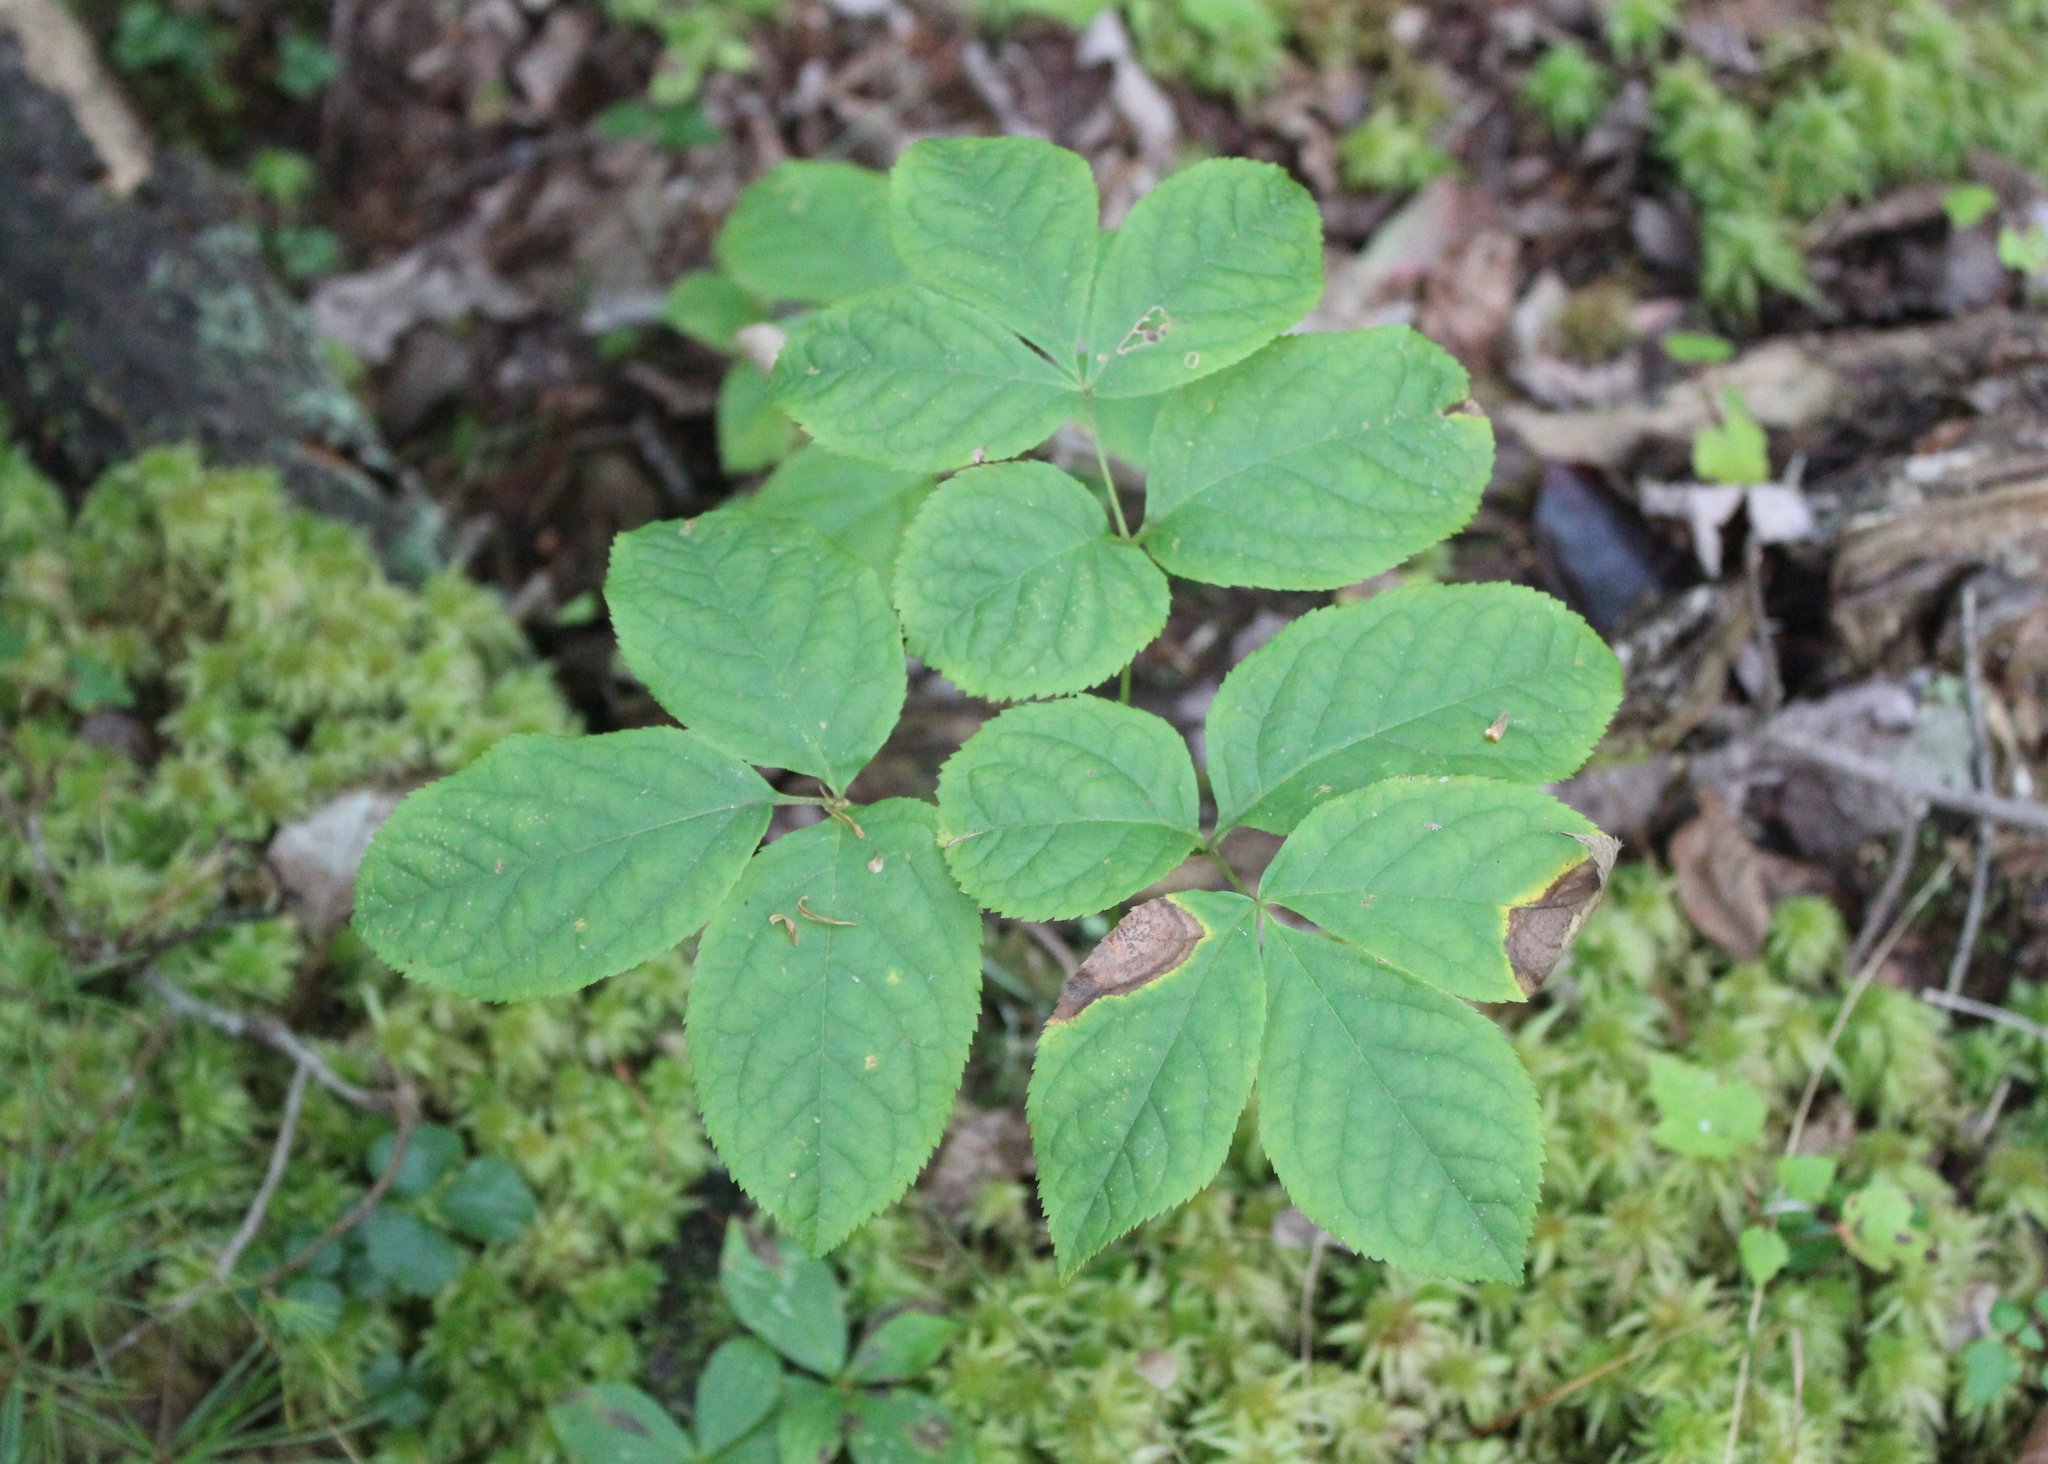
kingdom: Plantae
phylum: Tracheophyta
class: Magnoliopsida
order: Apiales
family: Araliaceae
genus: Aralia
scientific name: Aralia nudicaulis
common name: Wild sarsaparilla
